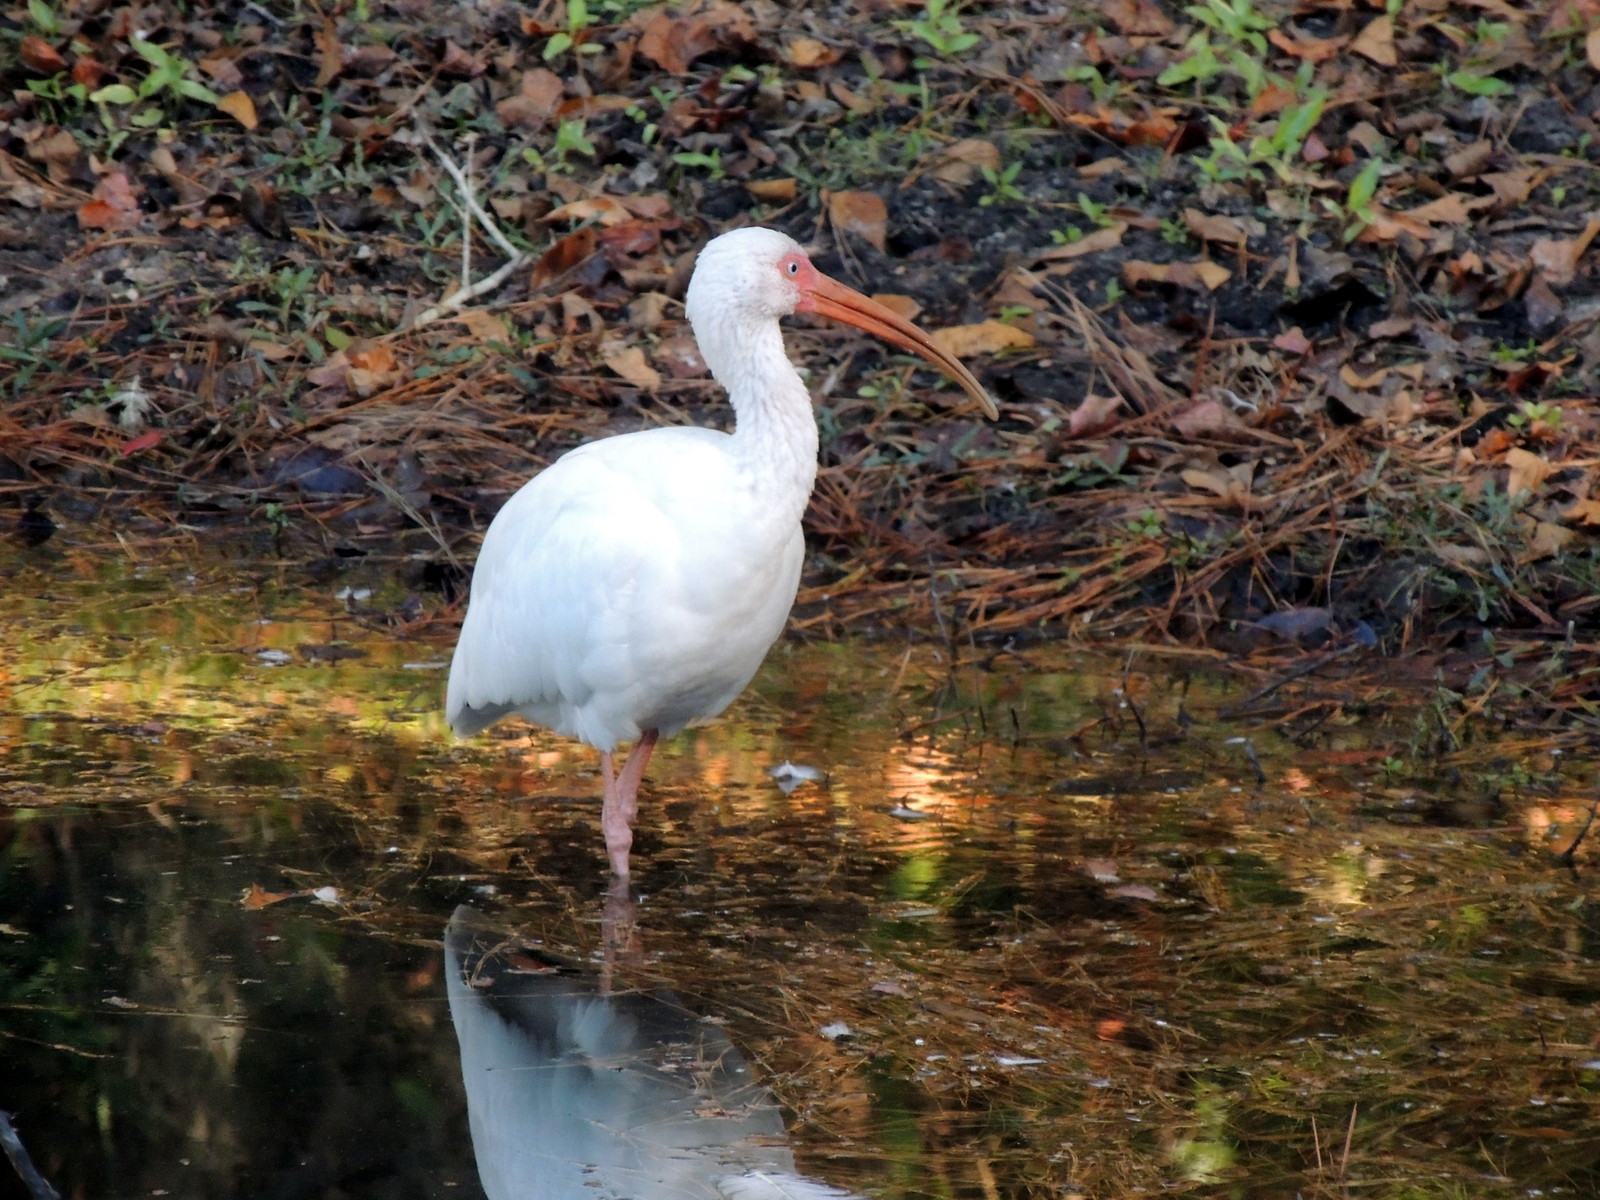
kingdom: Animalia
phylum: Chordata
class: Aves
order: Pelecaniformes
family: Threskiornithidae
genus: Eudocimus
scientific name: Eudocimus albus
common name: White ibis
